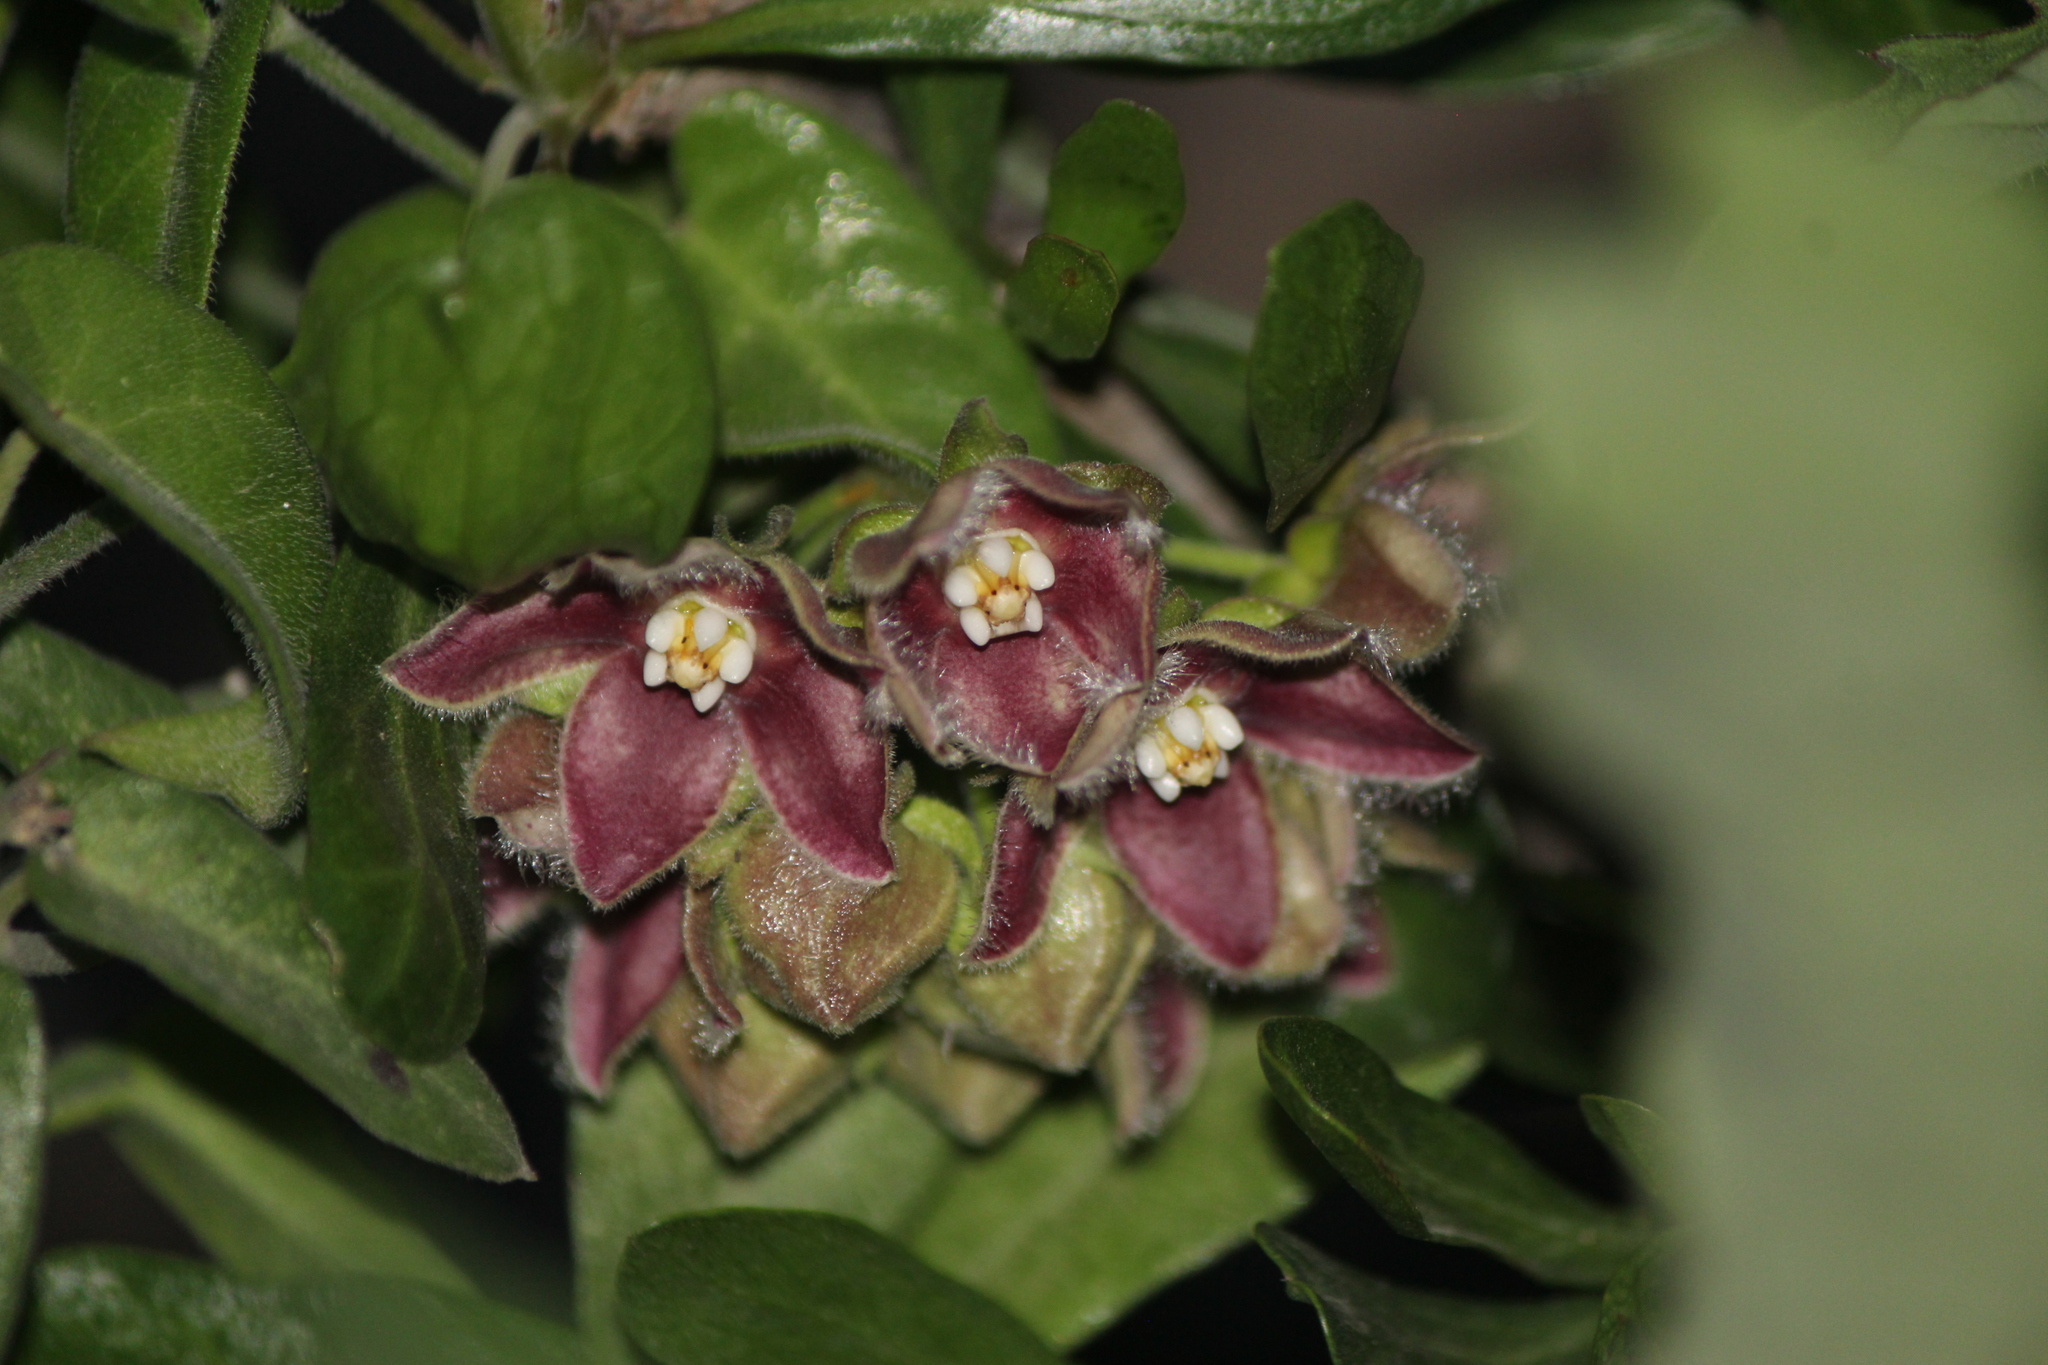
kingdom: Plantae
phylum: Tracheophyta
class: Magnoliopsida
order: Gentianales
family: Apocynaceae
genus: Funastrum
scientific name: Funastrum elegans
